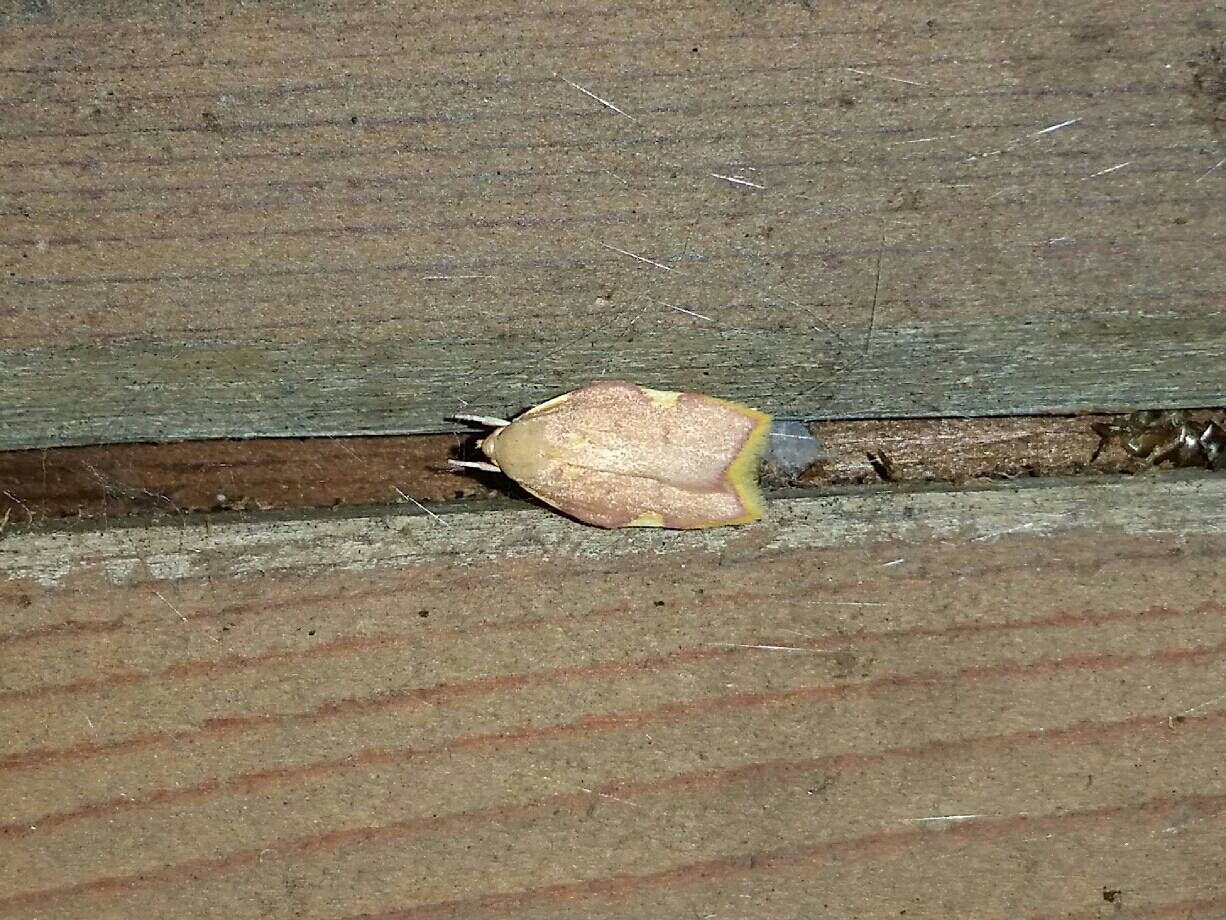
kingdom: Animalia
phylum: Arthropoda
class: Insecta
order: Lepidoptera
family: Peleopodidae
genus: Carcina
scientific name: Carcina quercana
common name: Moth
